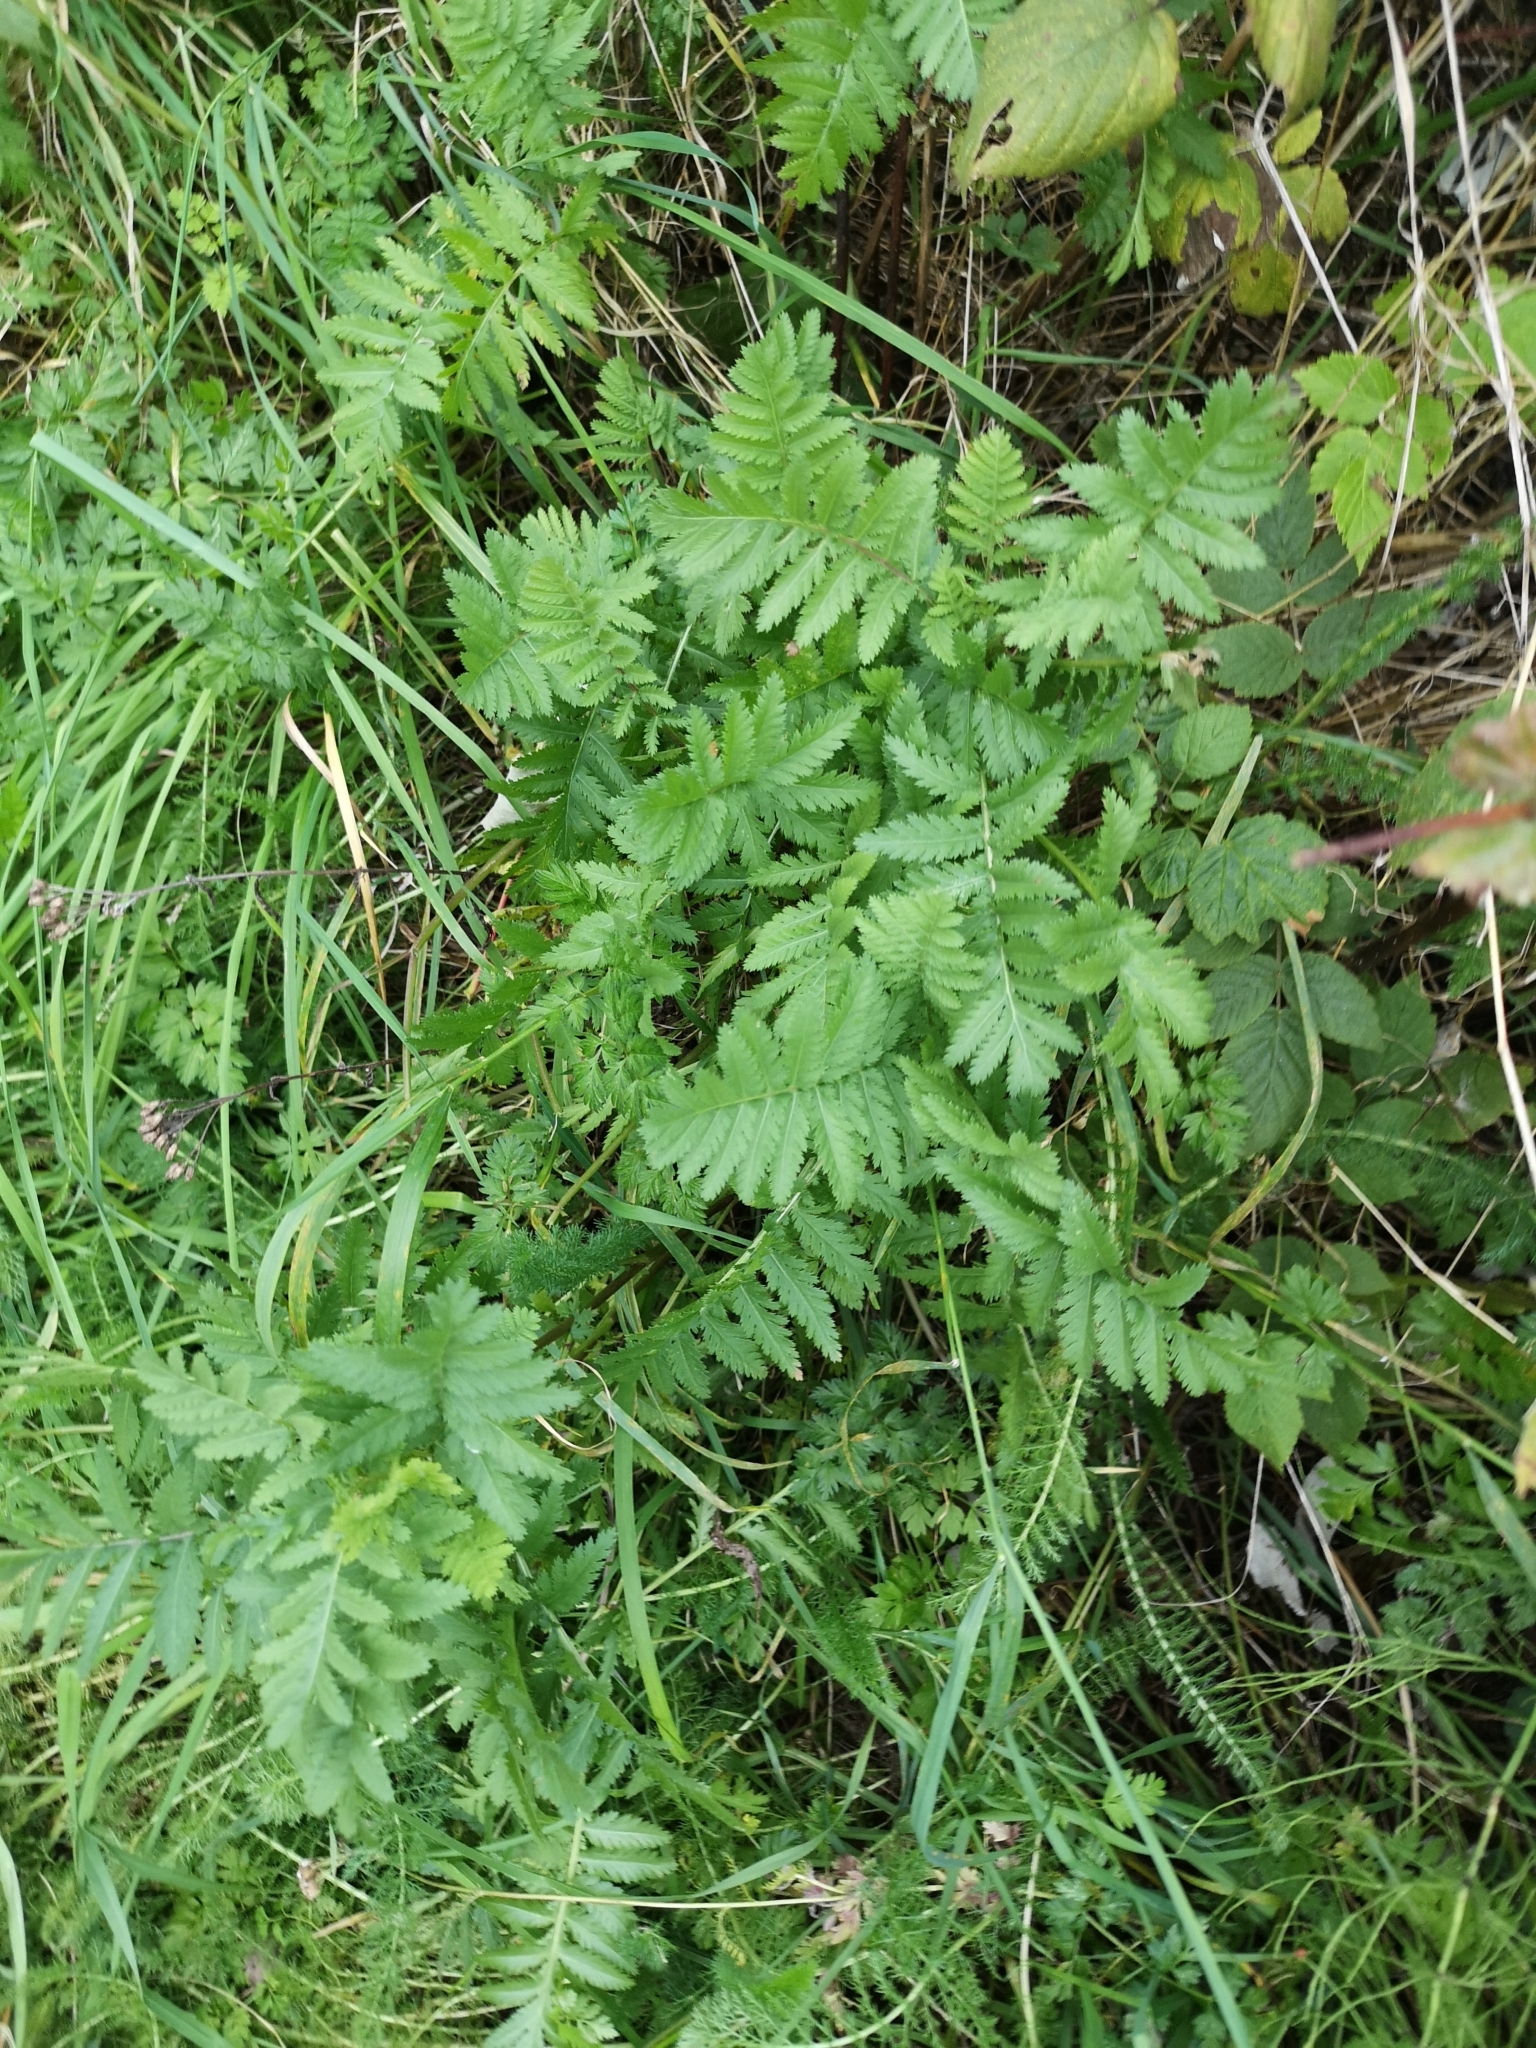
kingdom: Plantae
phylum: Tracheophyta
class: Magnoliopsida
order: Asterales
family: Asteraceae
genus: Tanacetum
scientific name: Tanacetum vulgare
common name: Common tansy
